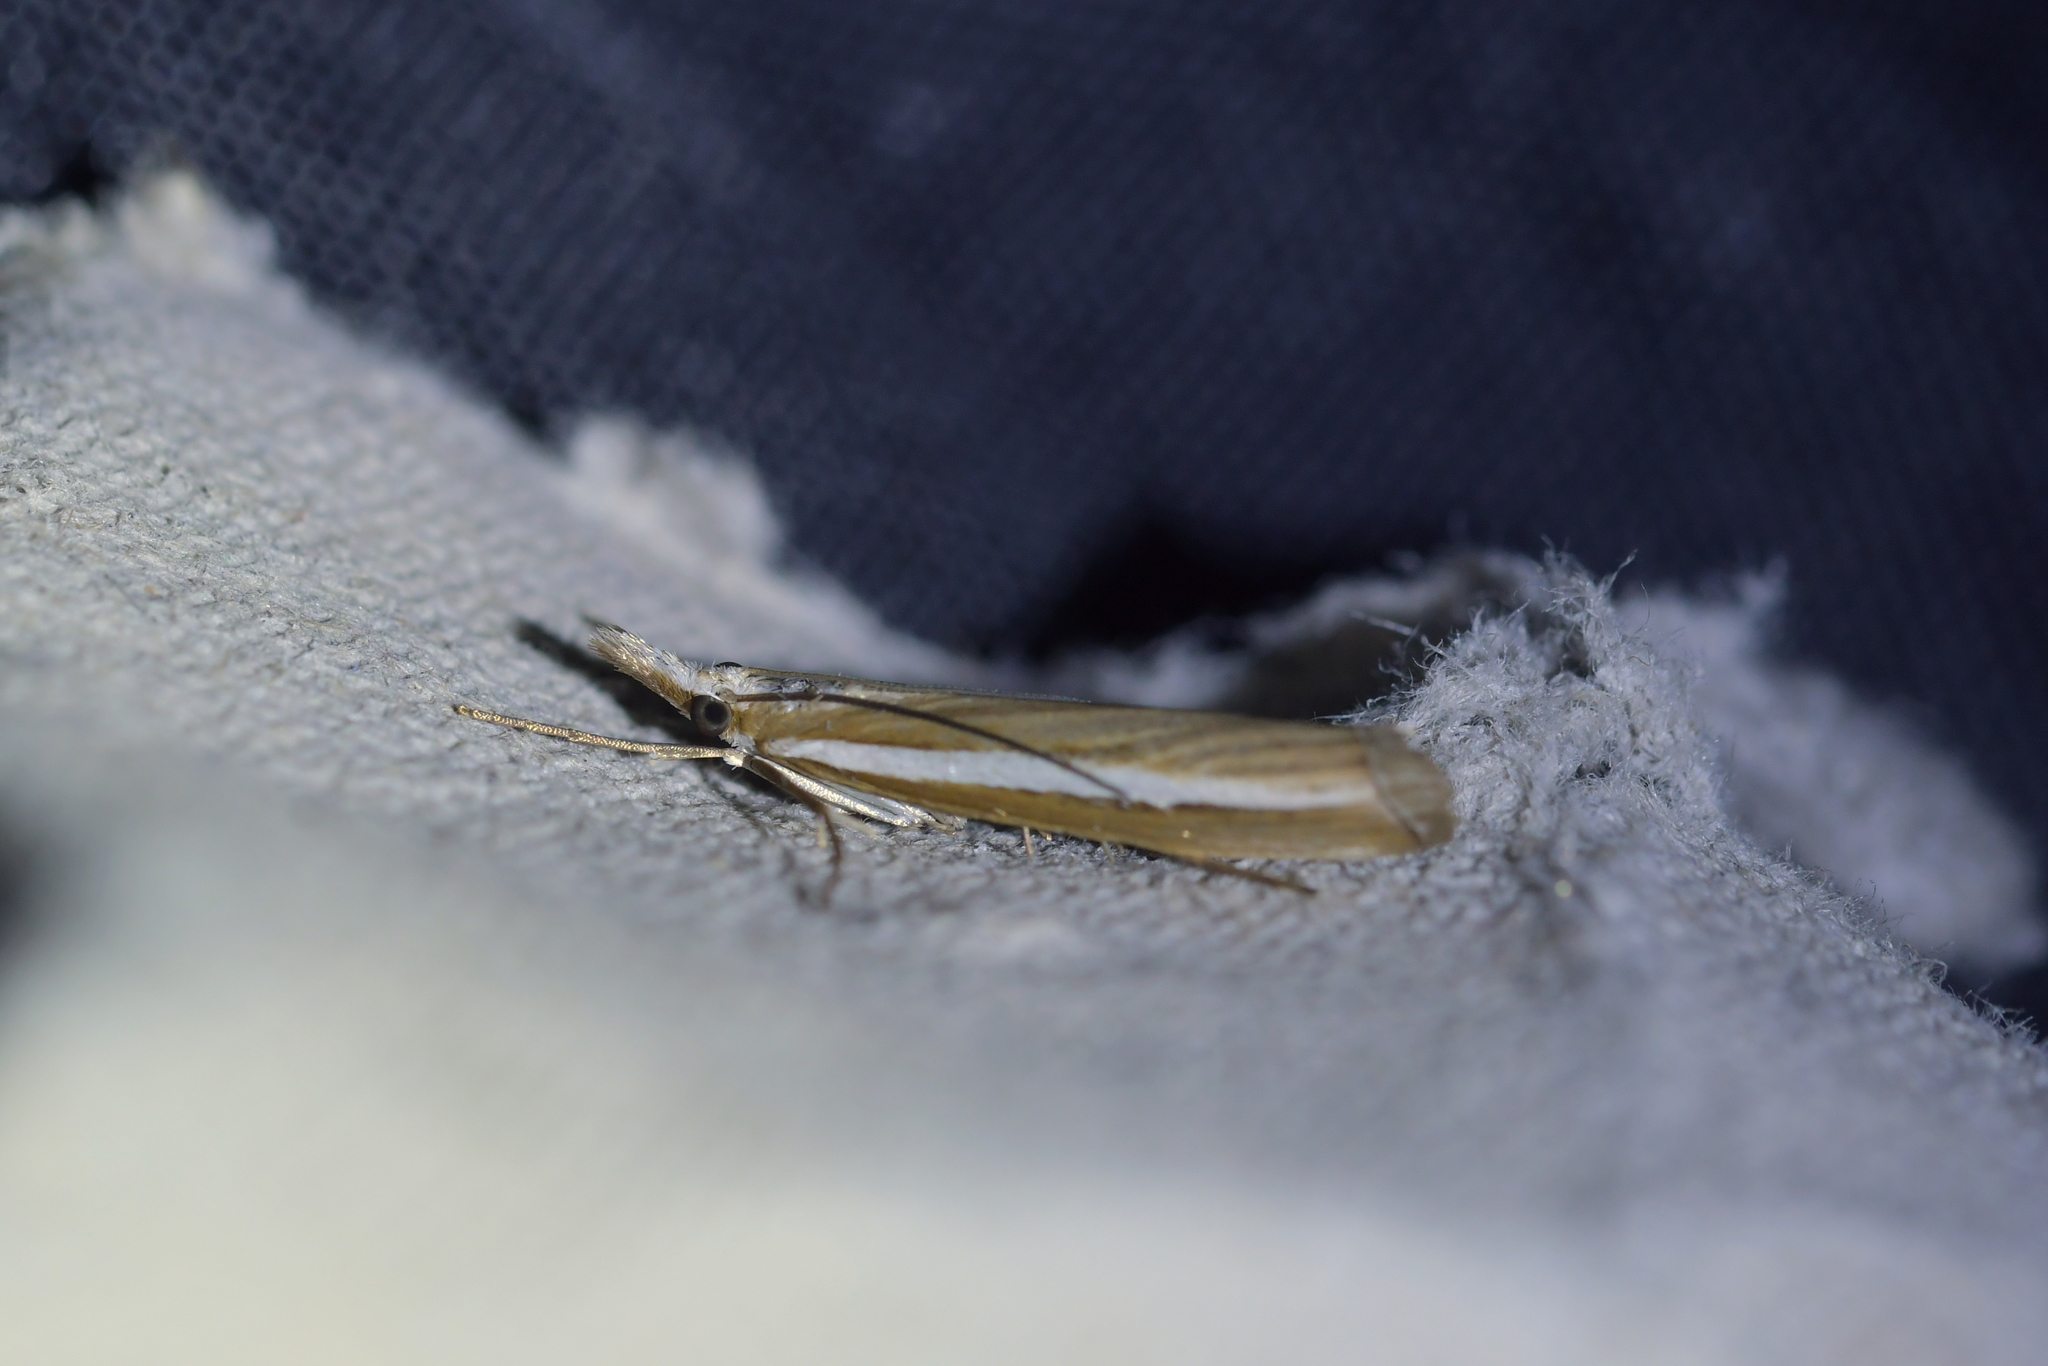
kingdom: Animalia
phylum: Arthropoda
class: Insecta
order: Lepidoptera
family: Crambidae
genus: Orocrambus
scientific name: Orocrambus vittellus
